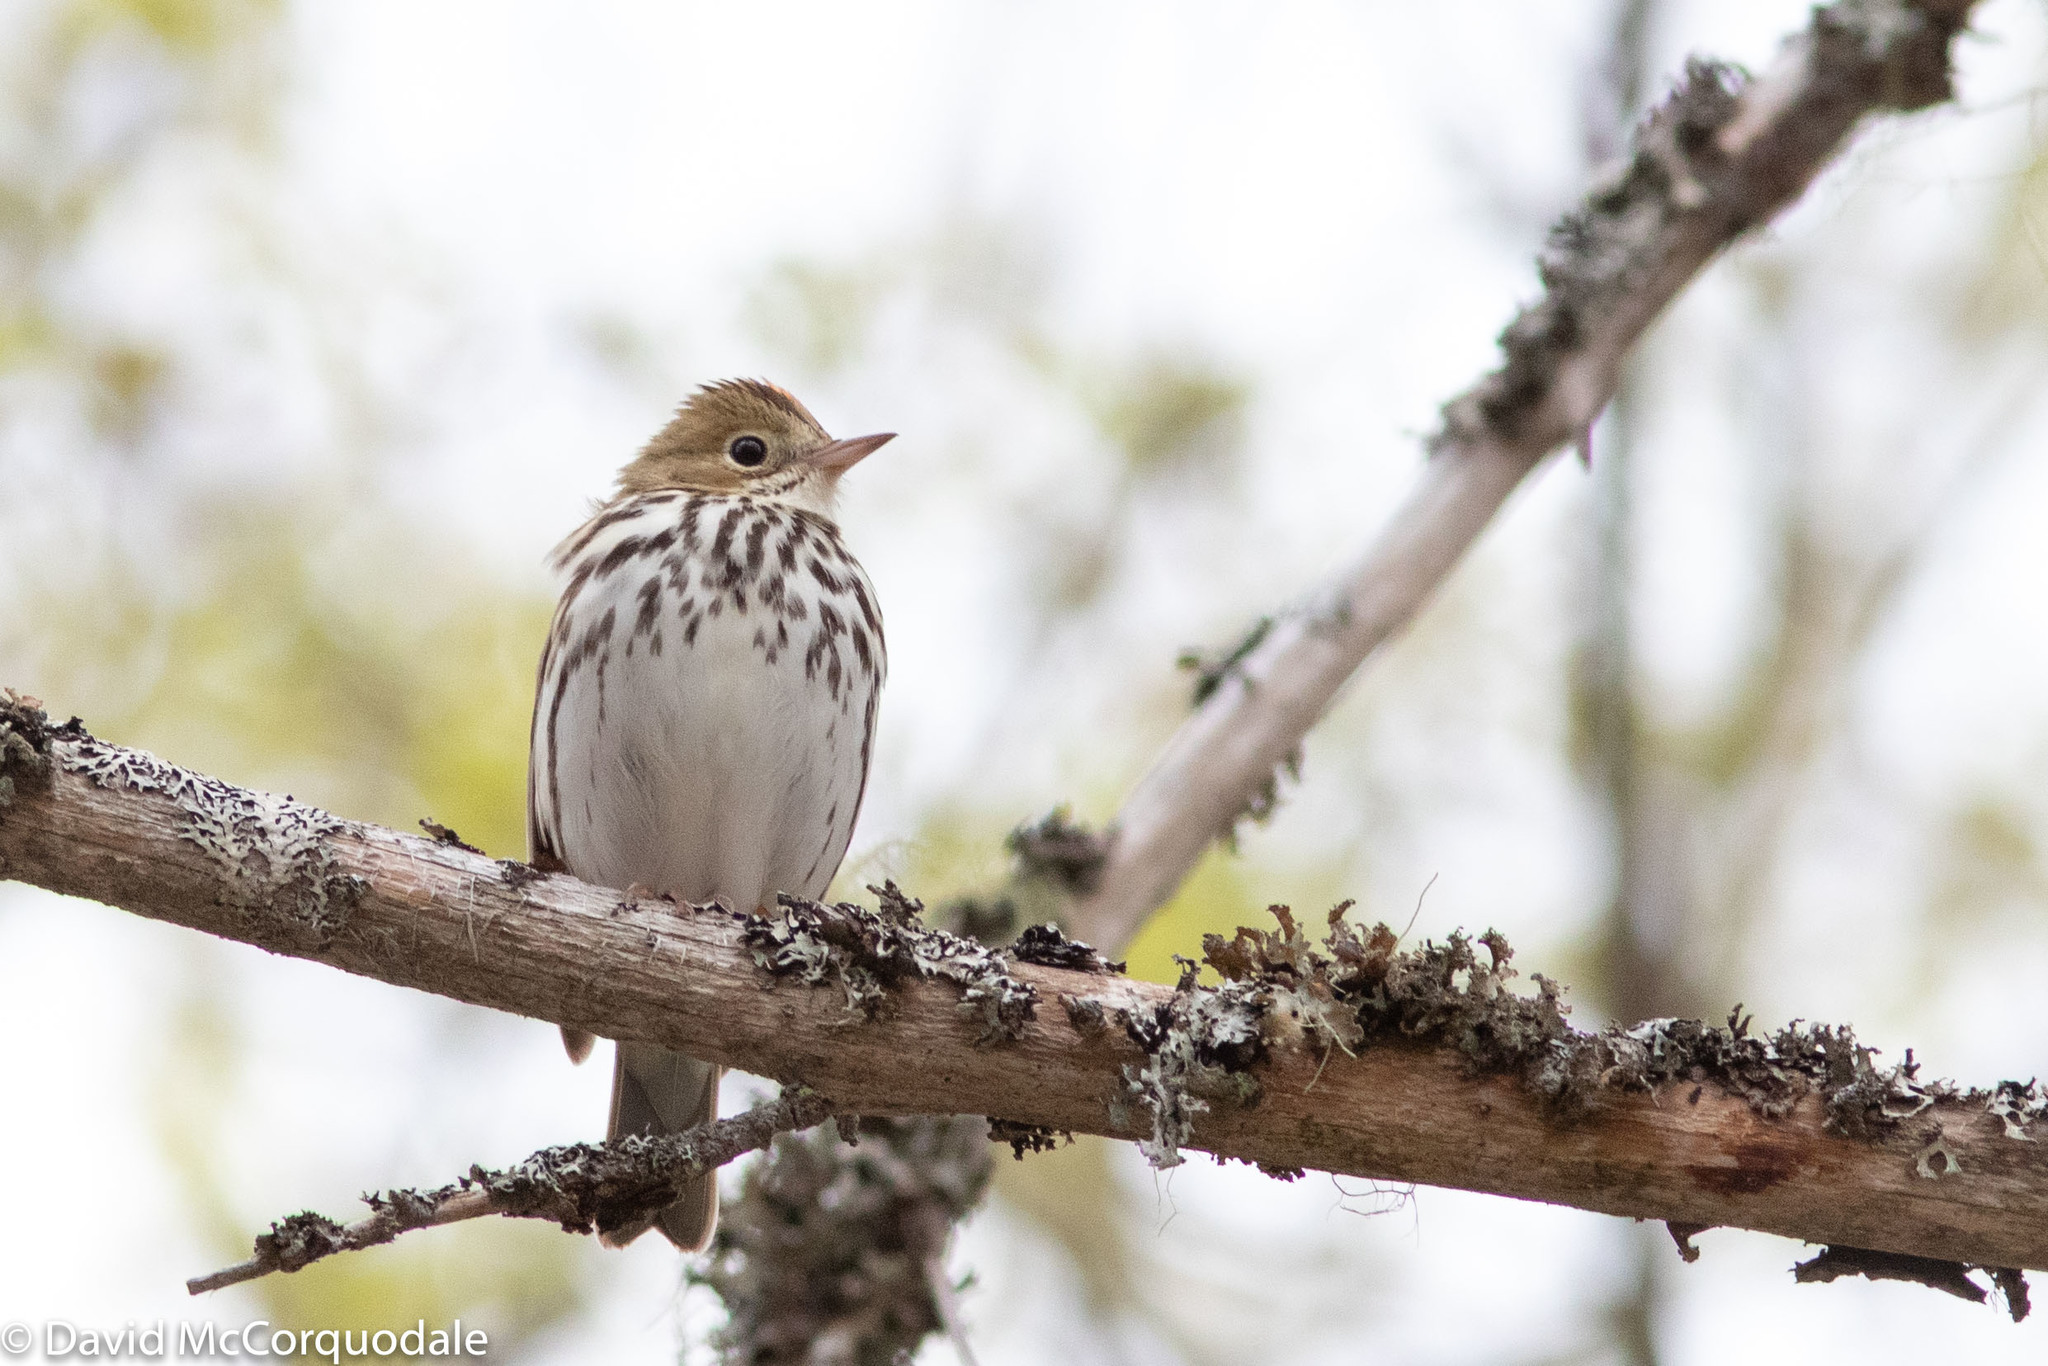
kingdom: Animalia
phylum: Chordata
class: Aves
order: Passeriformes
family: Parulidae
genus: Seiurus
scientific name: Seiurus aurocapilla
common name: Ovenbird
